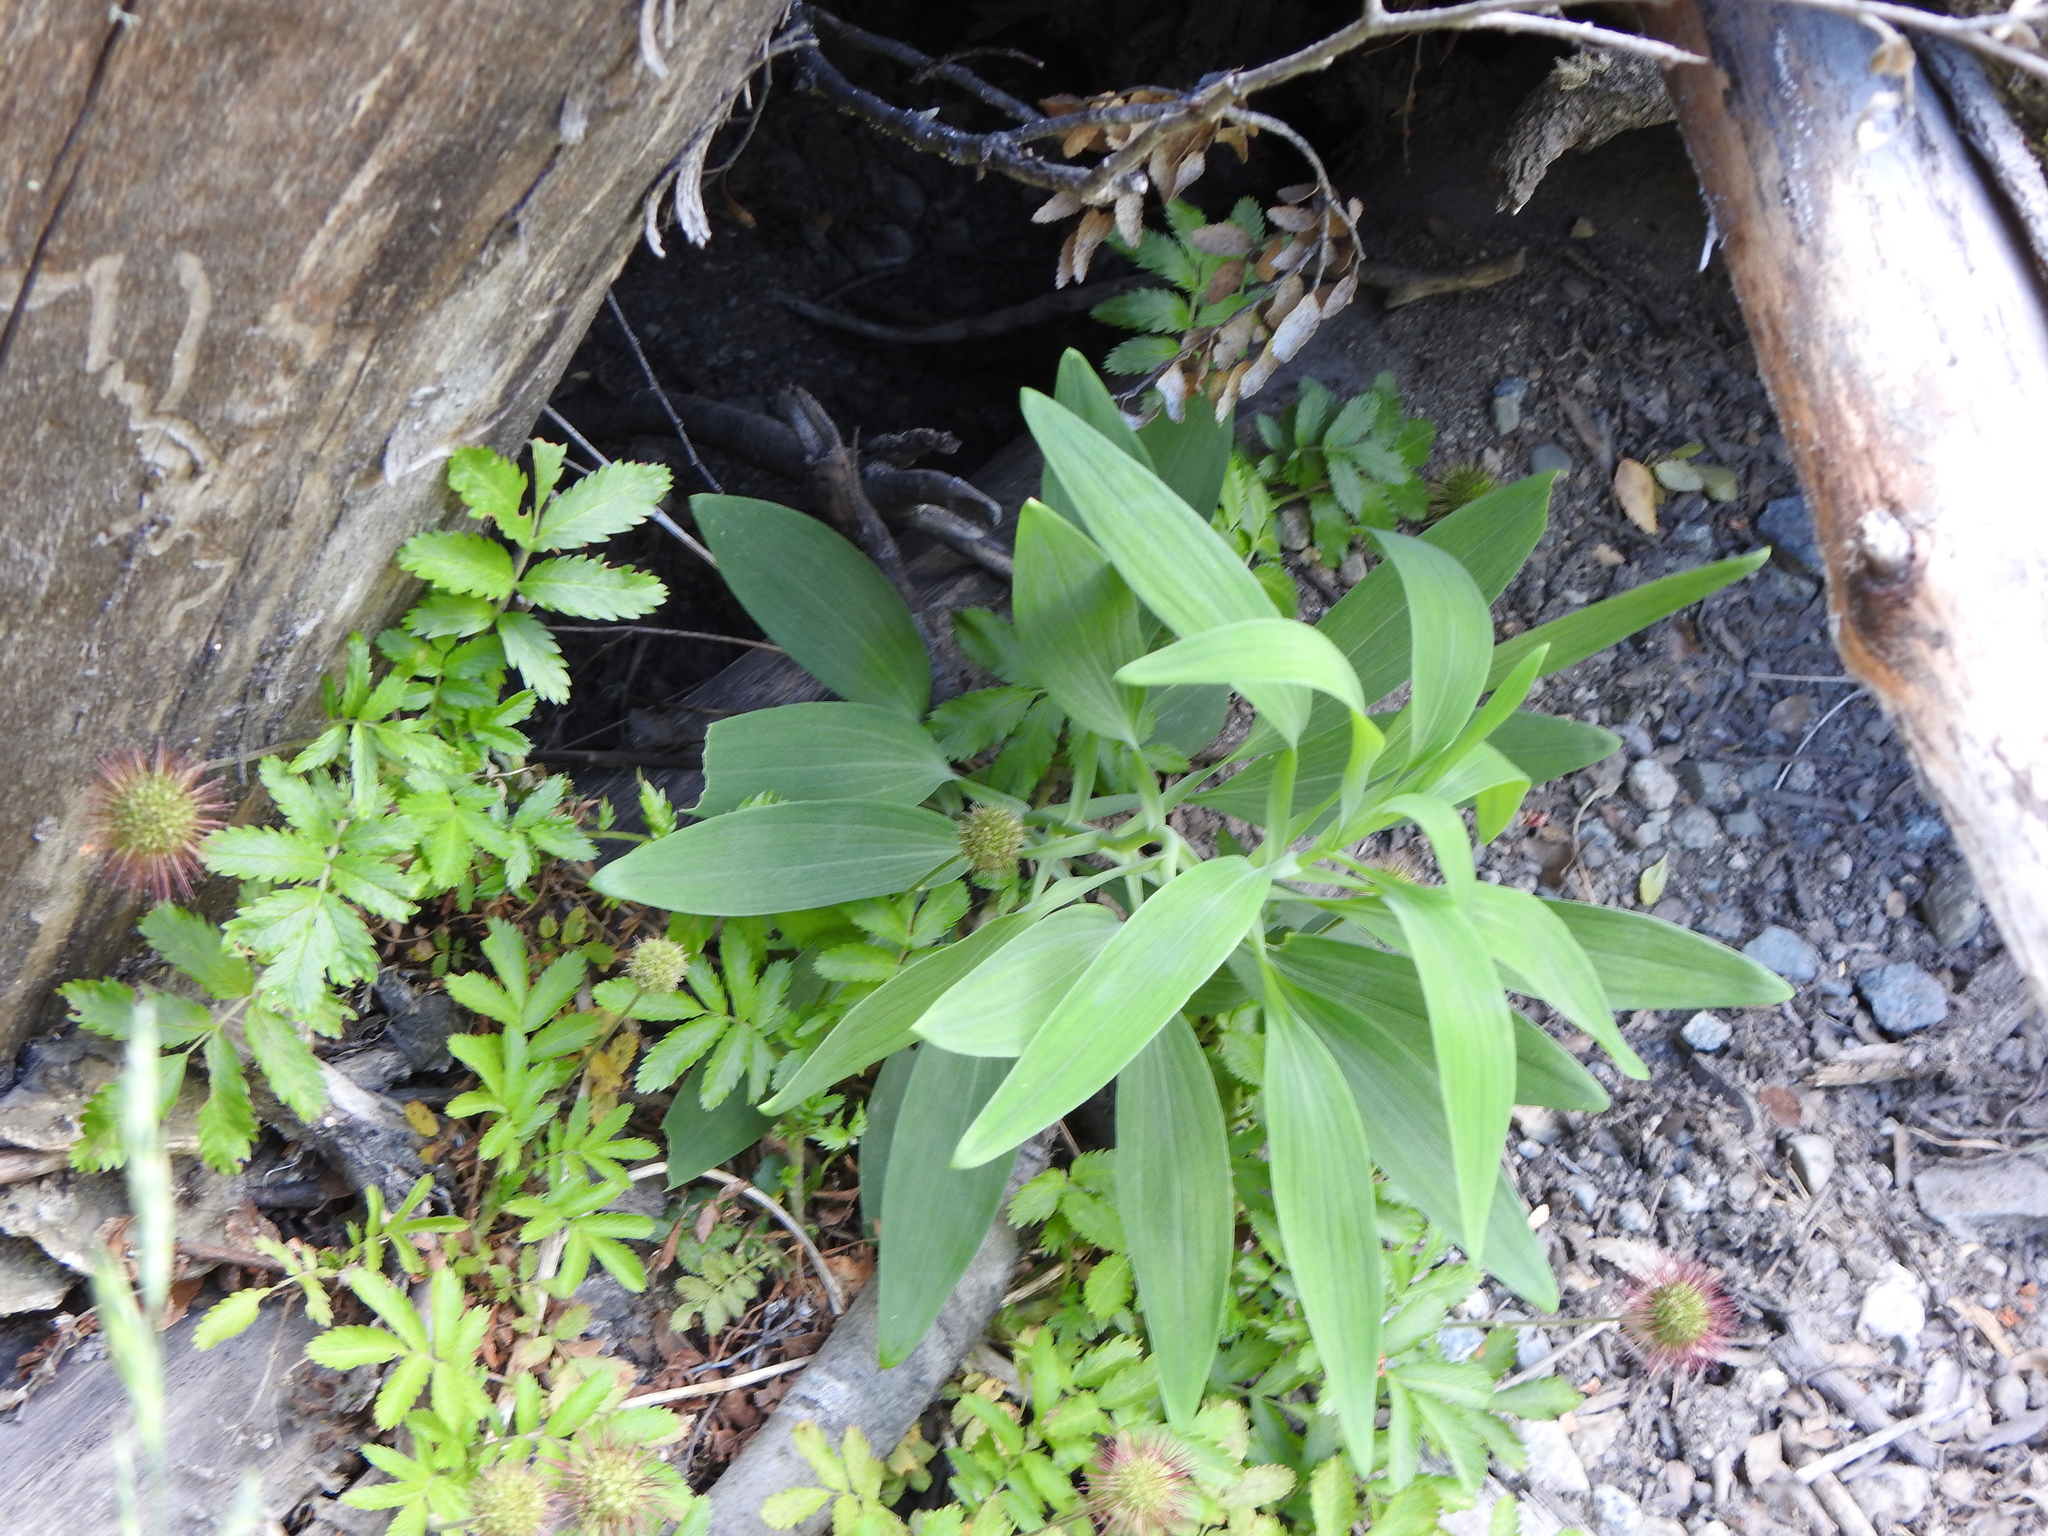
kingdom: Plantae
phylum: Tracheophyta
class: Liliopsida
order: Liliales
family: Alstroemeriaceae
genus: Alstroemeria
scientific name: Alstroemeria aurea
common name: Peruvian lily
